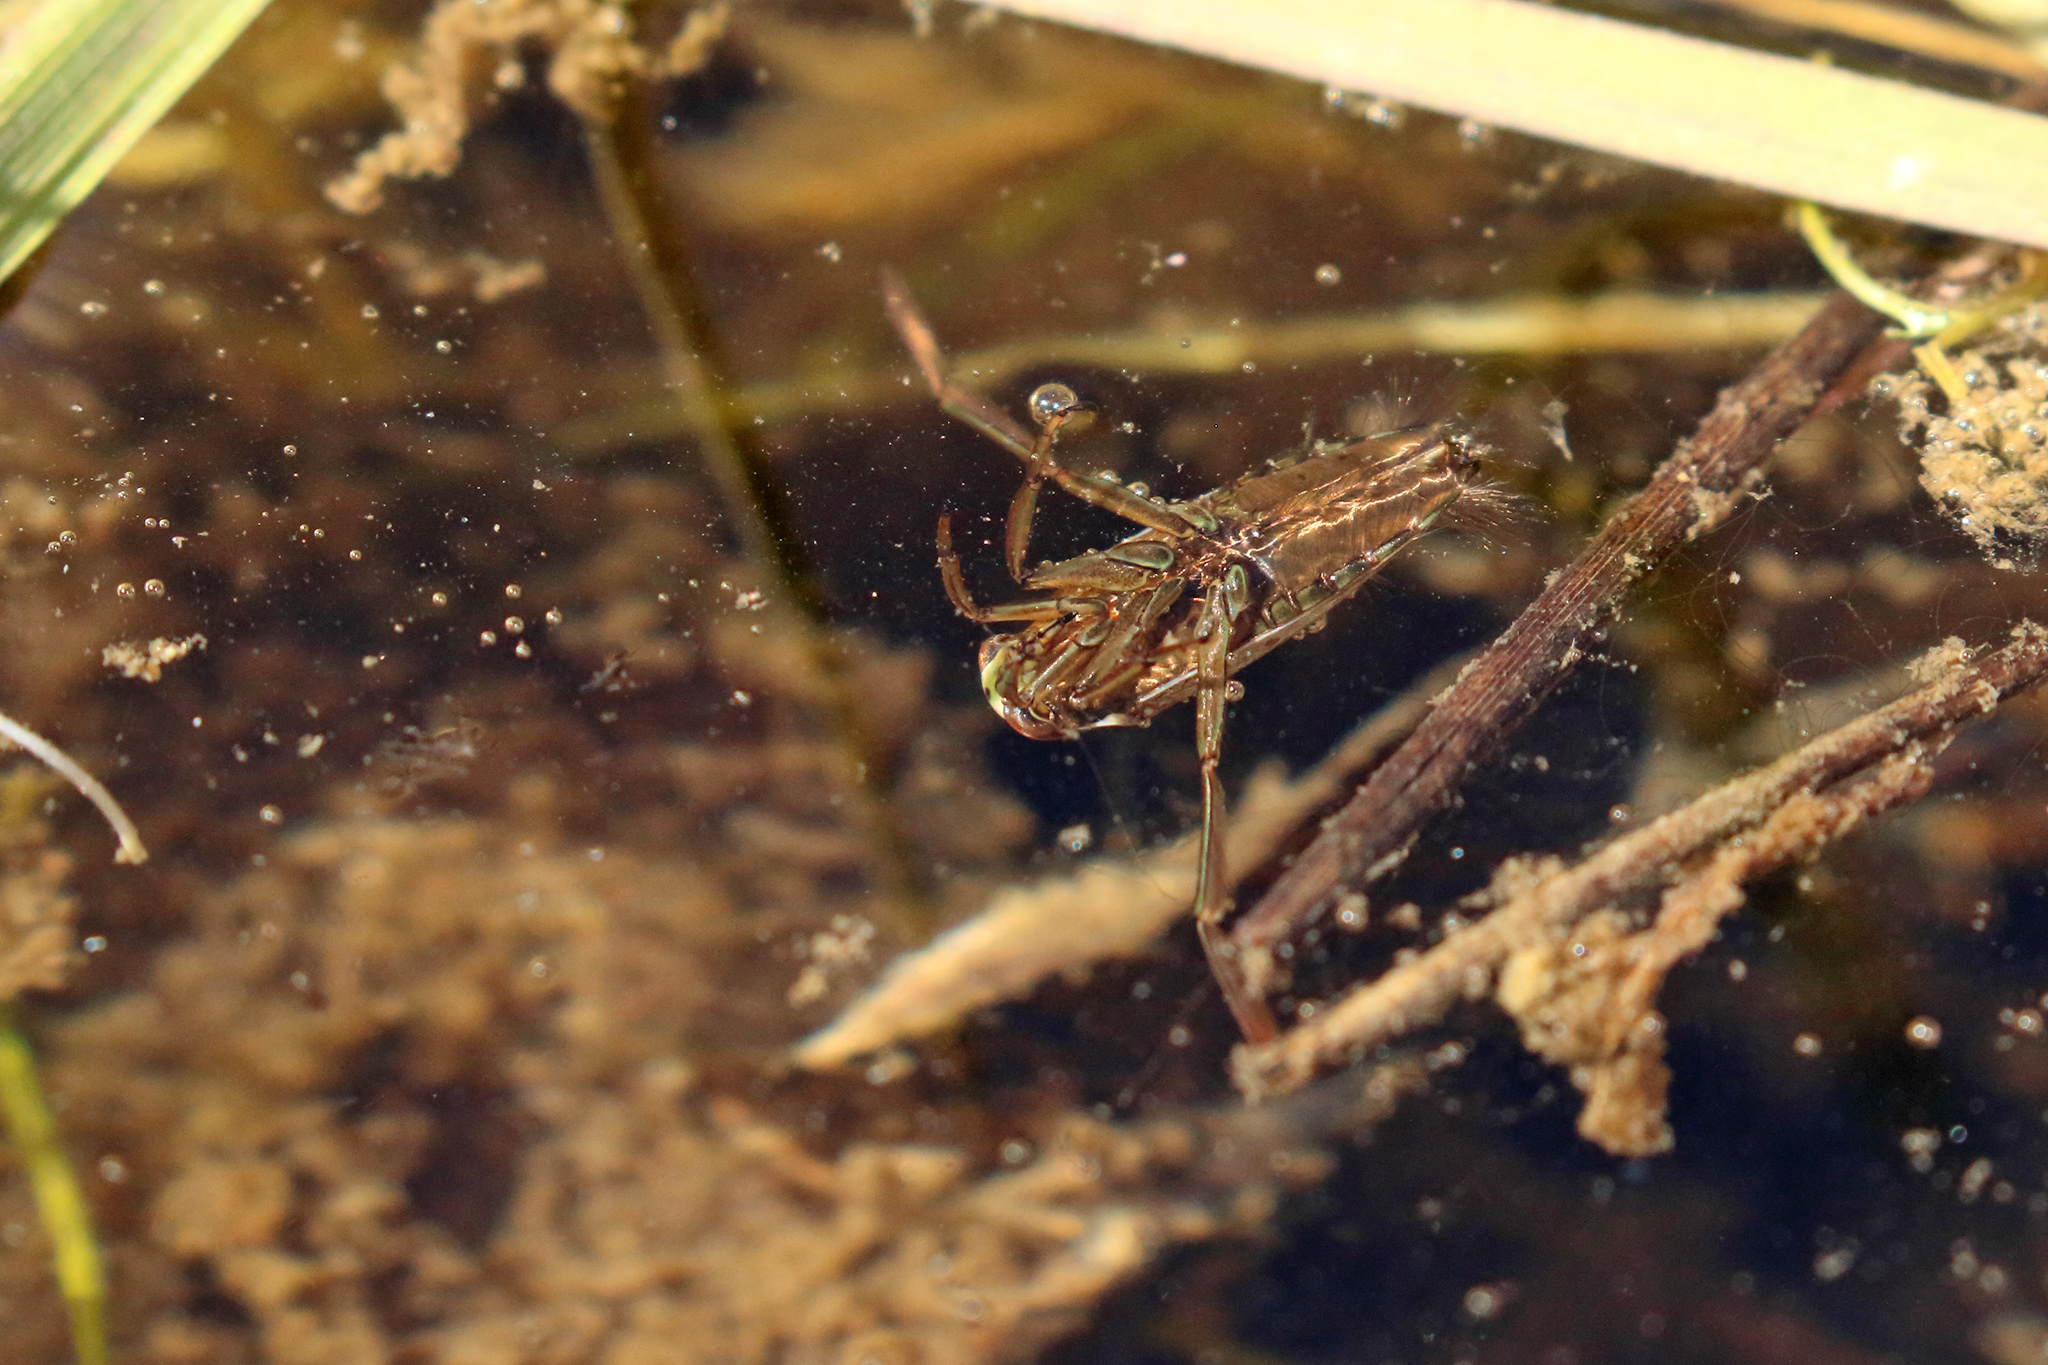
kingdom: Animalia
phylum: Arthropoda
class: Insecta
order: Hemiptera
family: Notonectidae
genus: Notonecta
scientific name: Notonecta
